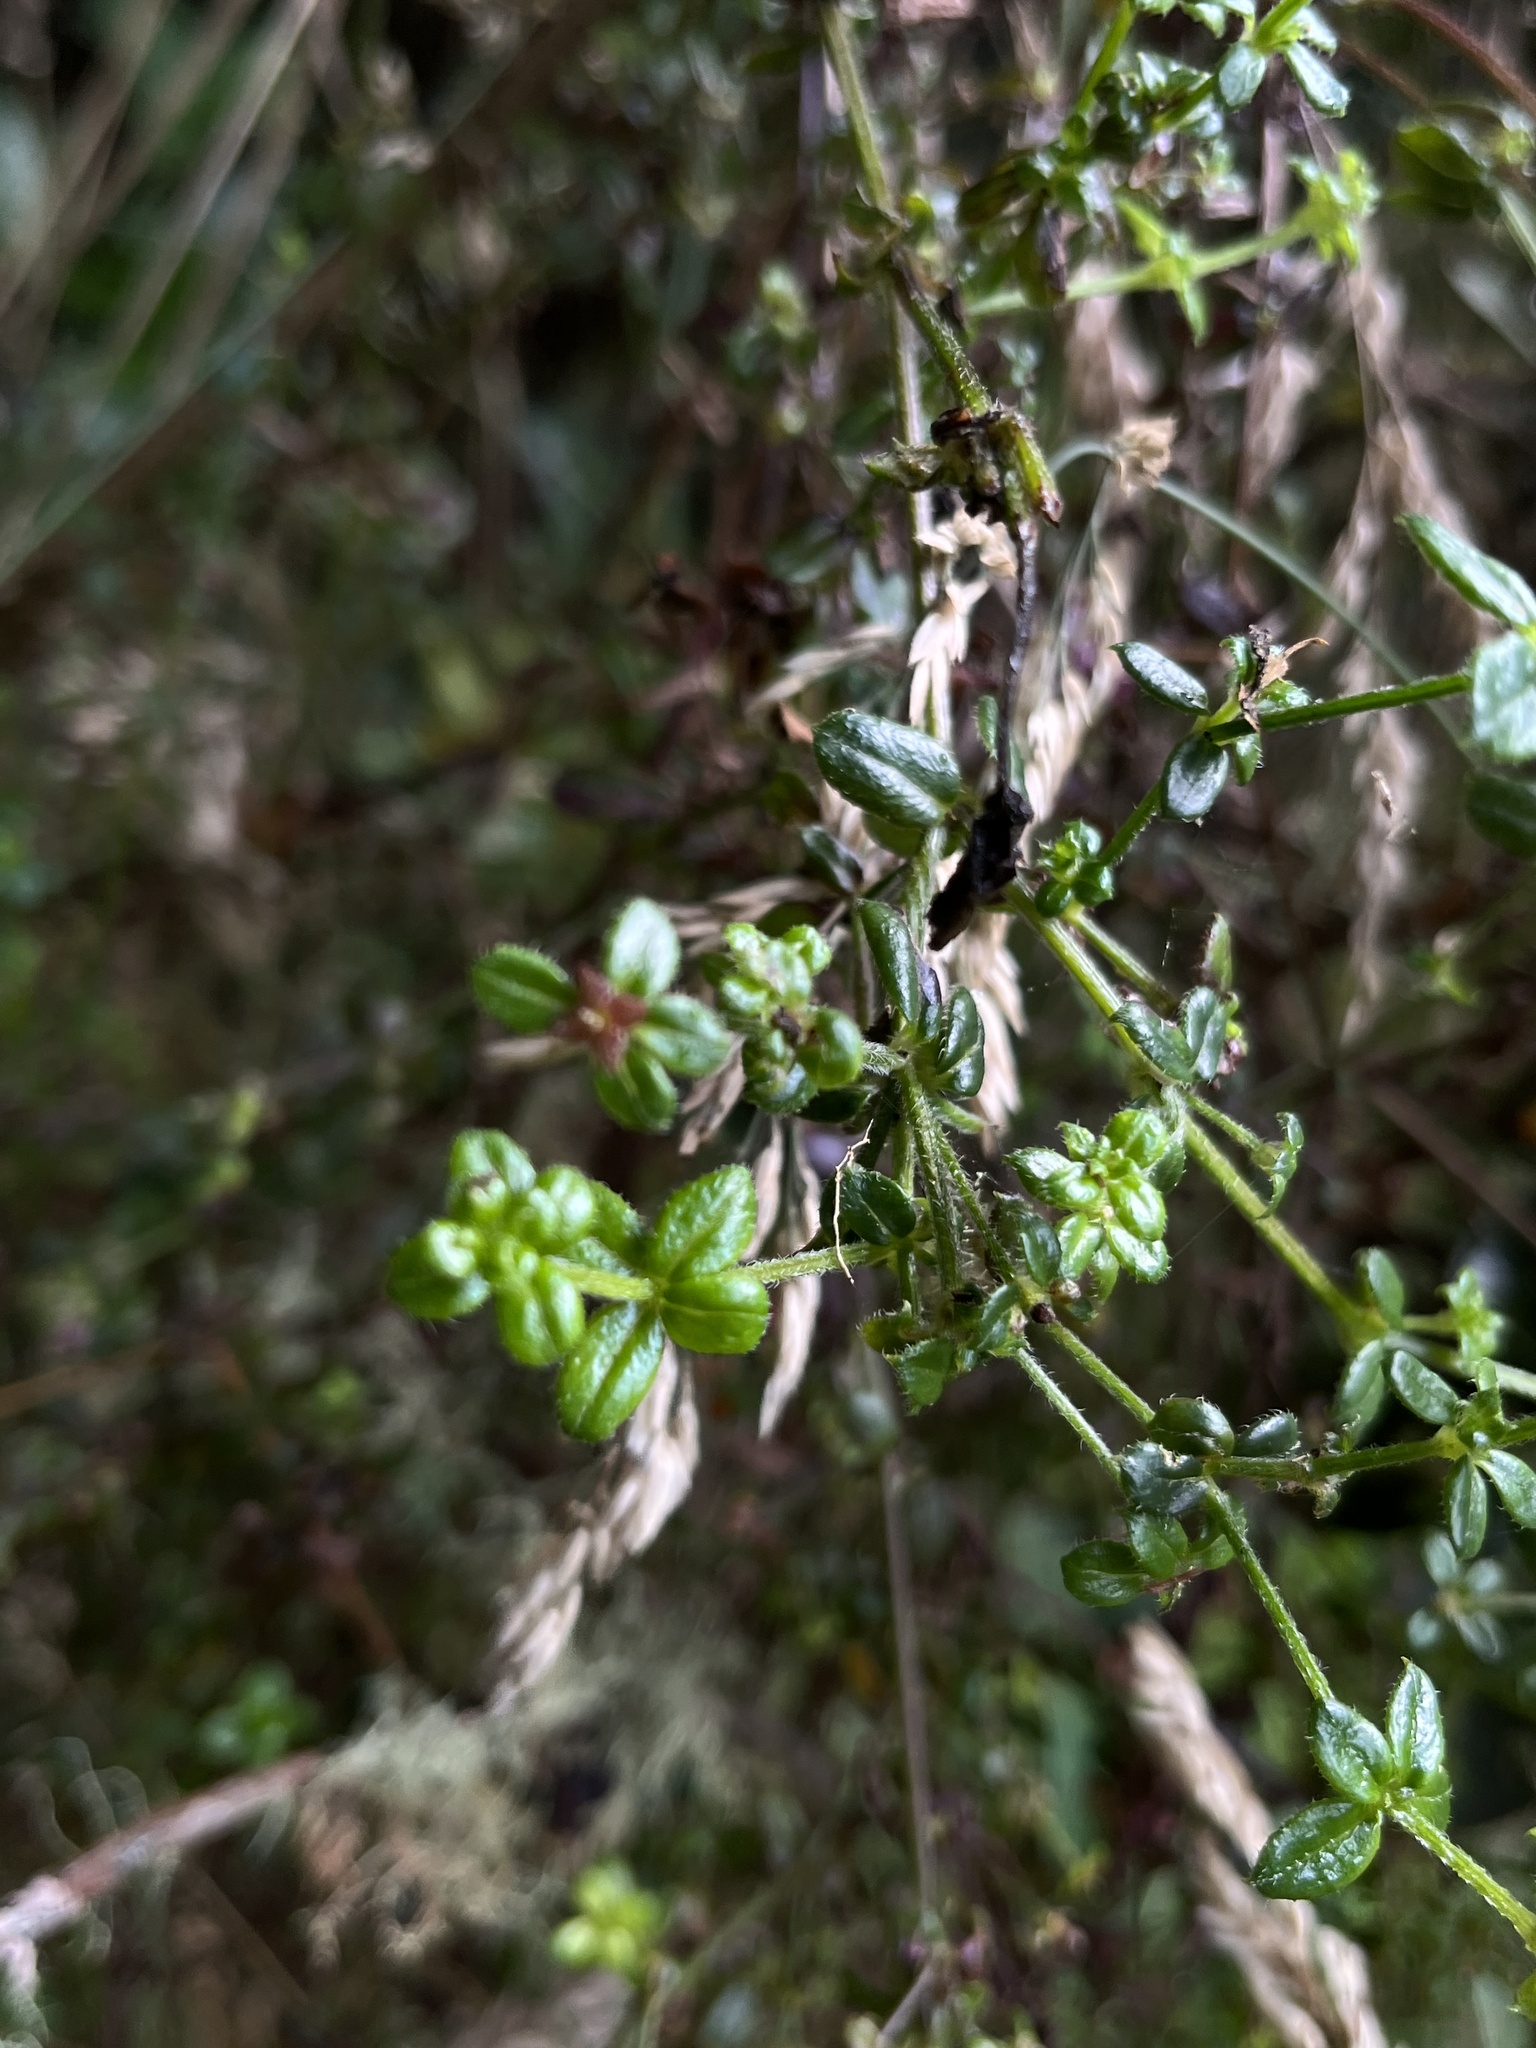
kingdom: Plantae
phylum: Tracheophyta
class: Magnoliopsida
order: Gentianales
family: Rubiaceae
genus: Galium
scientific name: Galium hypocarpium
